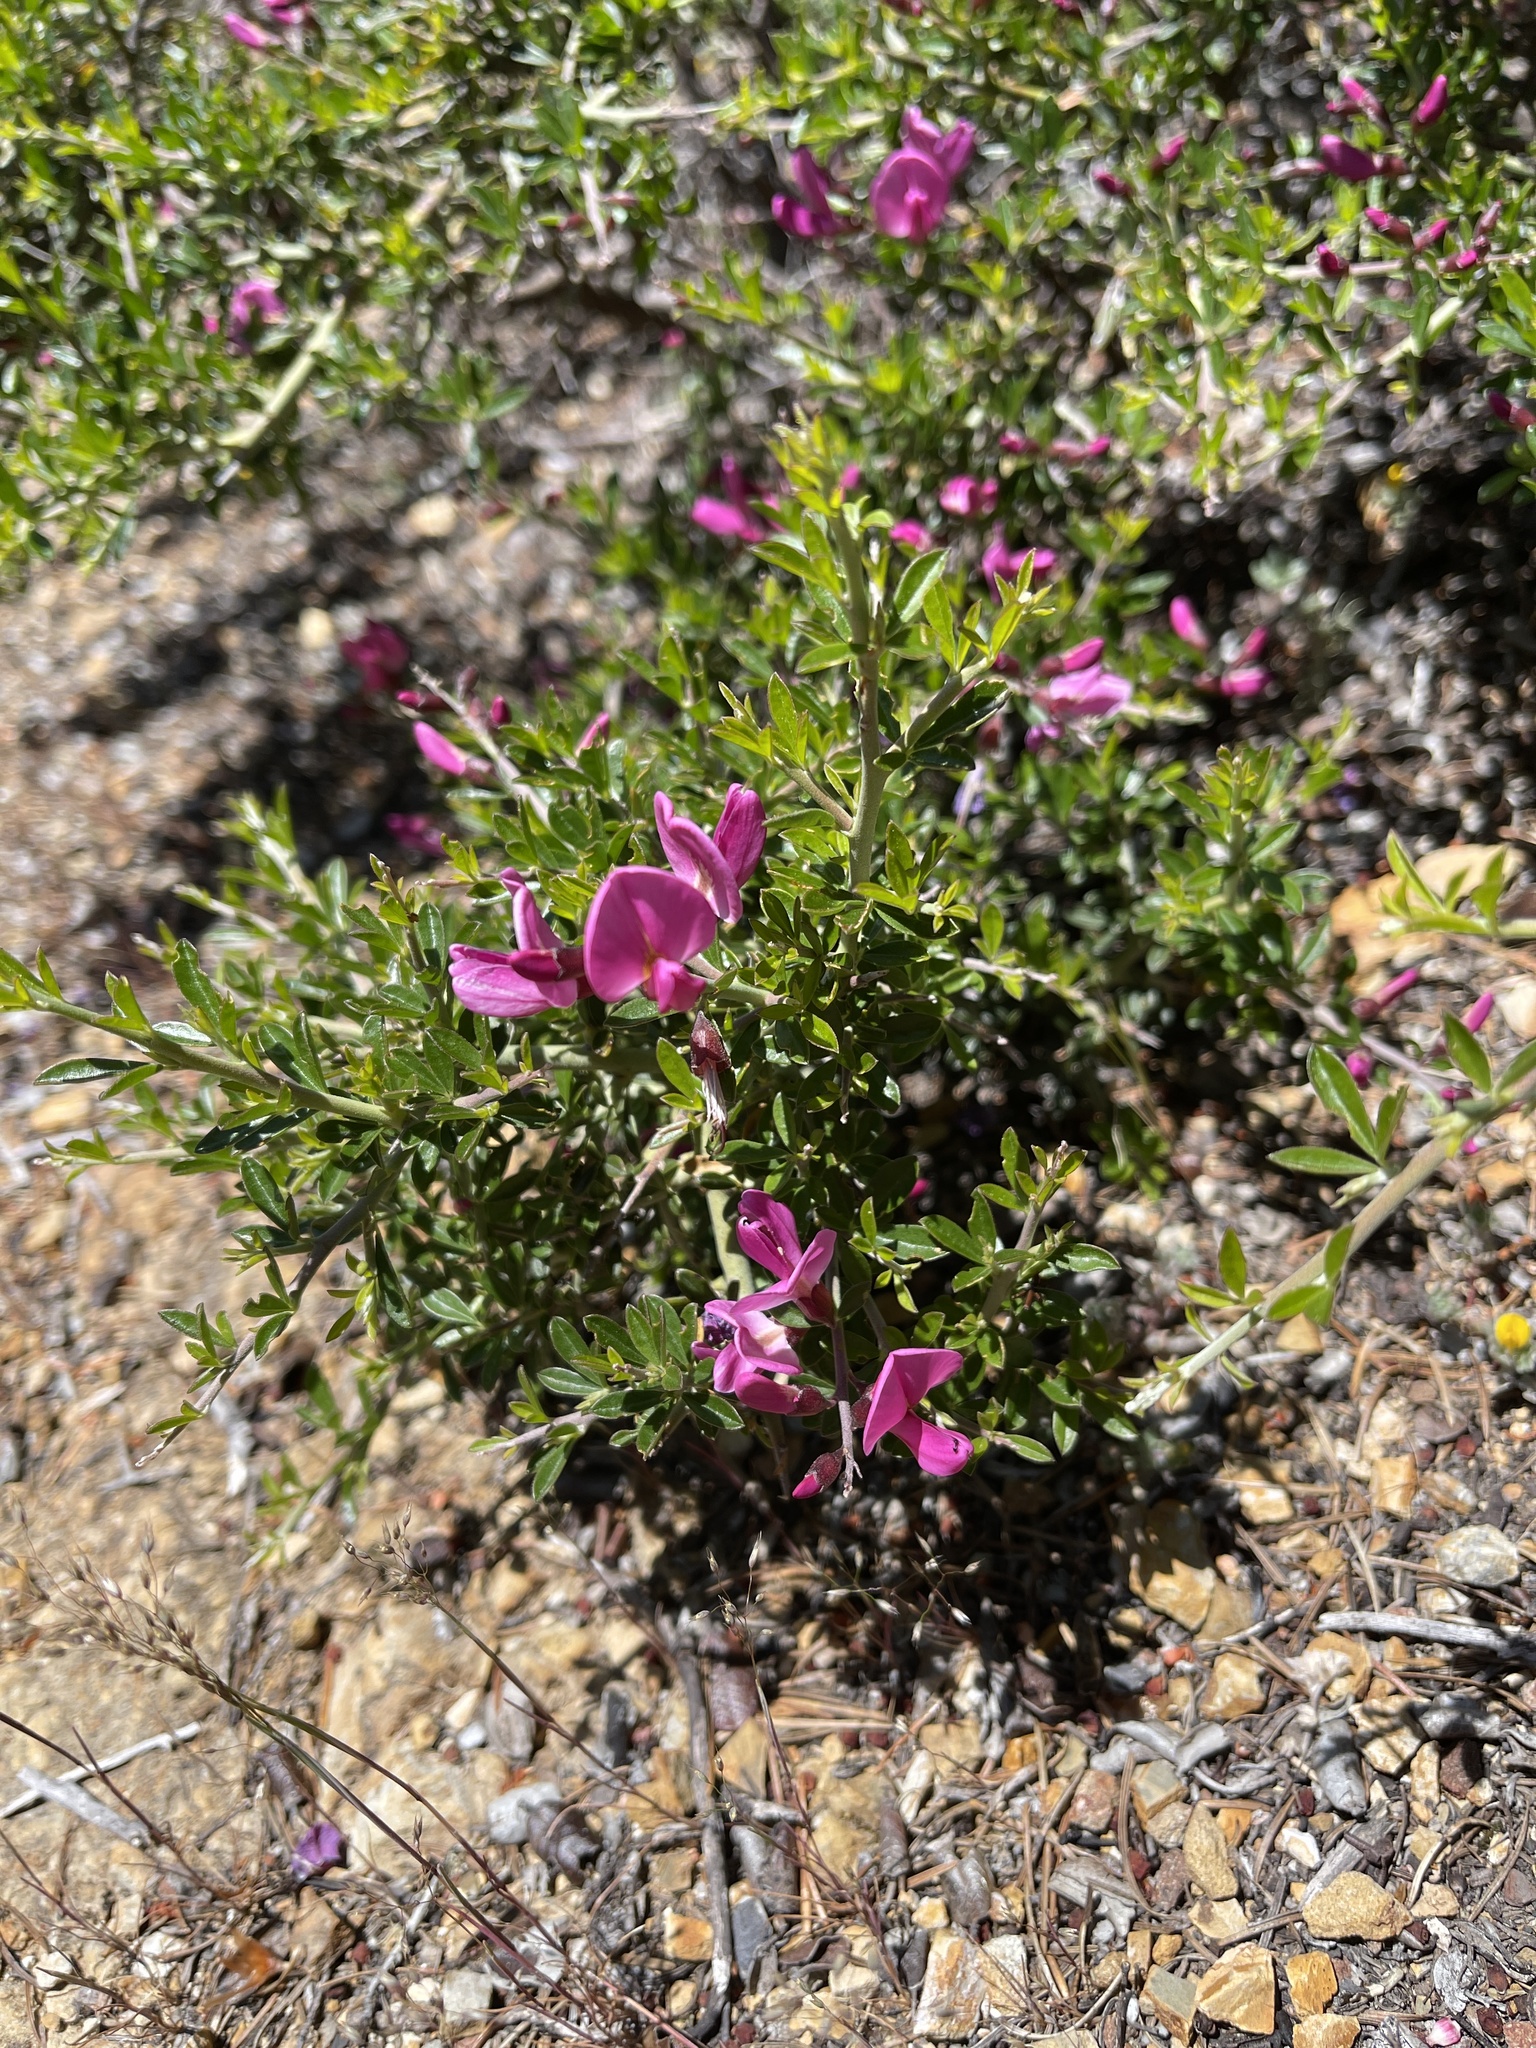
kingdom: Plantae
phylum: Tracheophyta
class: Magnoliopsida
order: Fabales
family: Fabaceae
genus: Pickeringia
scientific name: Pickeringia montana
